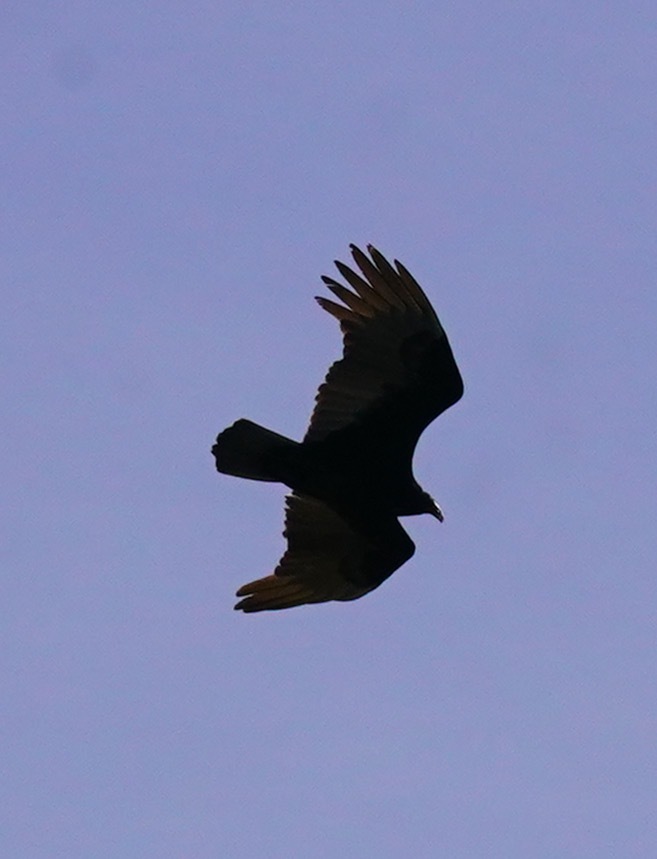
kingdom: Animalia
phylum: Chordata
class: Aves
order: Accipitriformes
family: Cathartidae
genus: Cathartes
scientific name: Cathartes aura
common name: Turkey vulture
